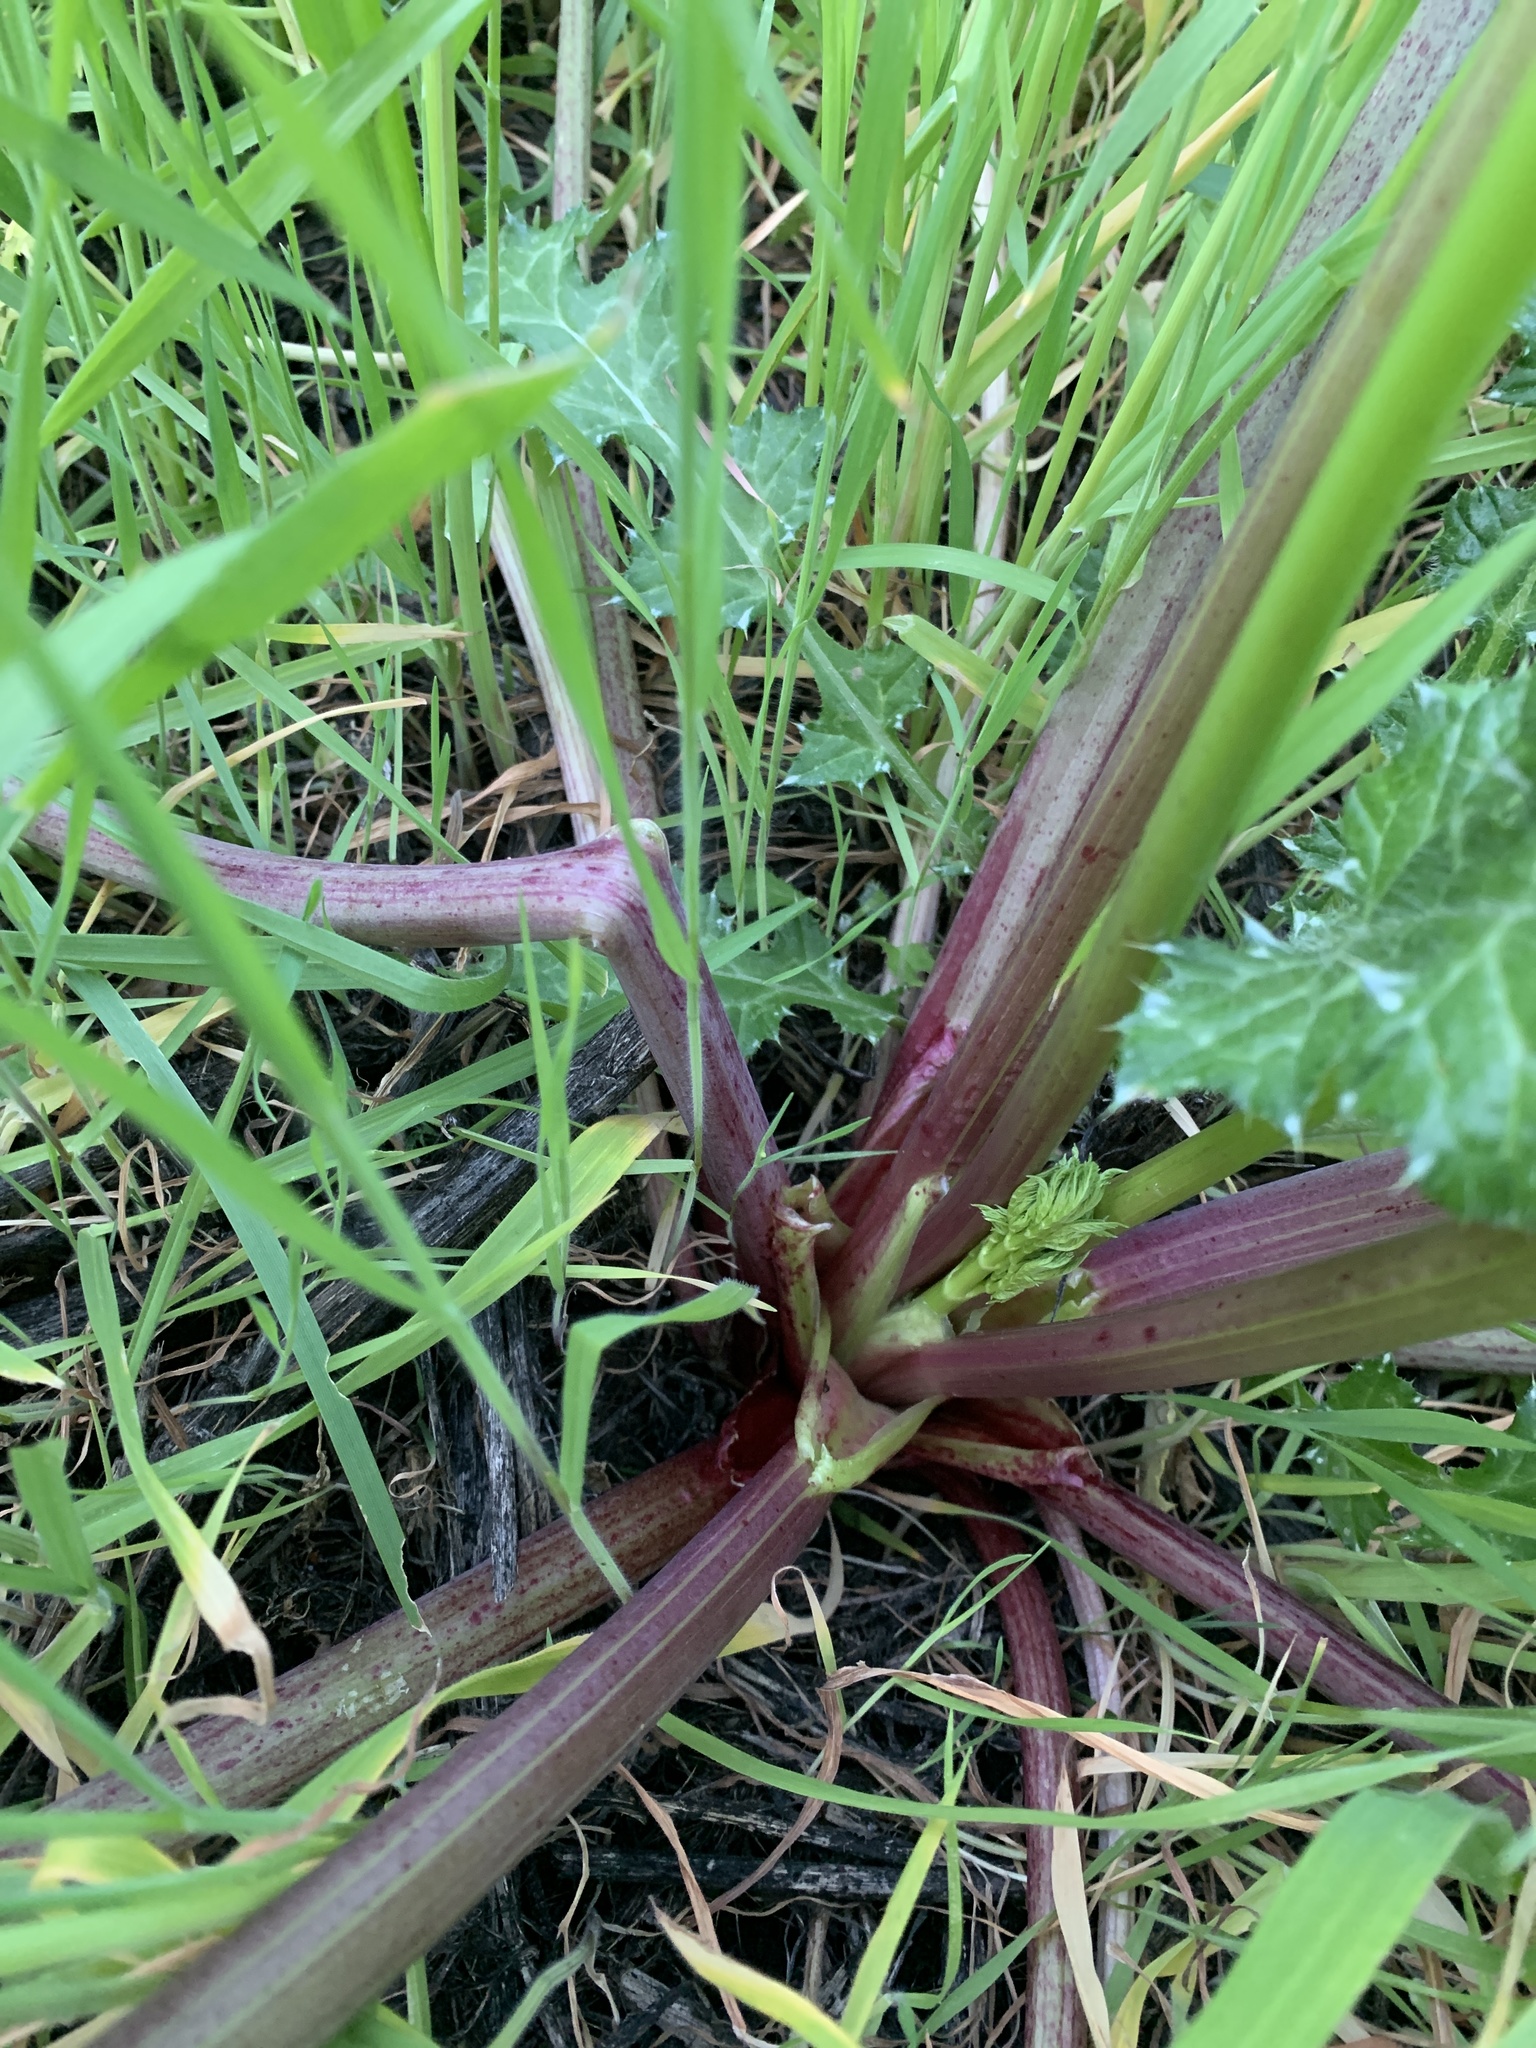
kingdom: Plantae
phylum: Tracheophyta
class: Magnoliopsida
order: Apiales
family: Apiaceae
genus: Conium
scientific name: Conium maculatum
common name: Hemlock
